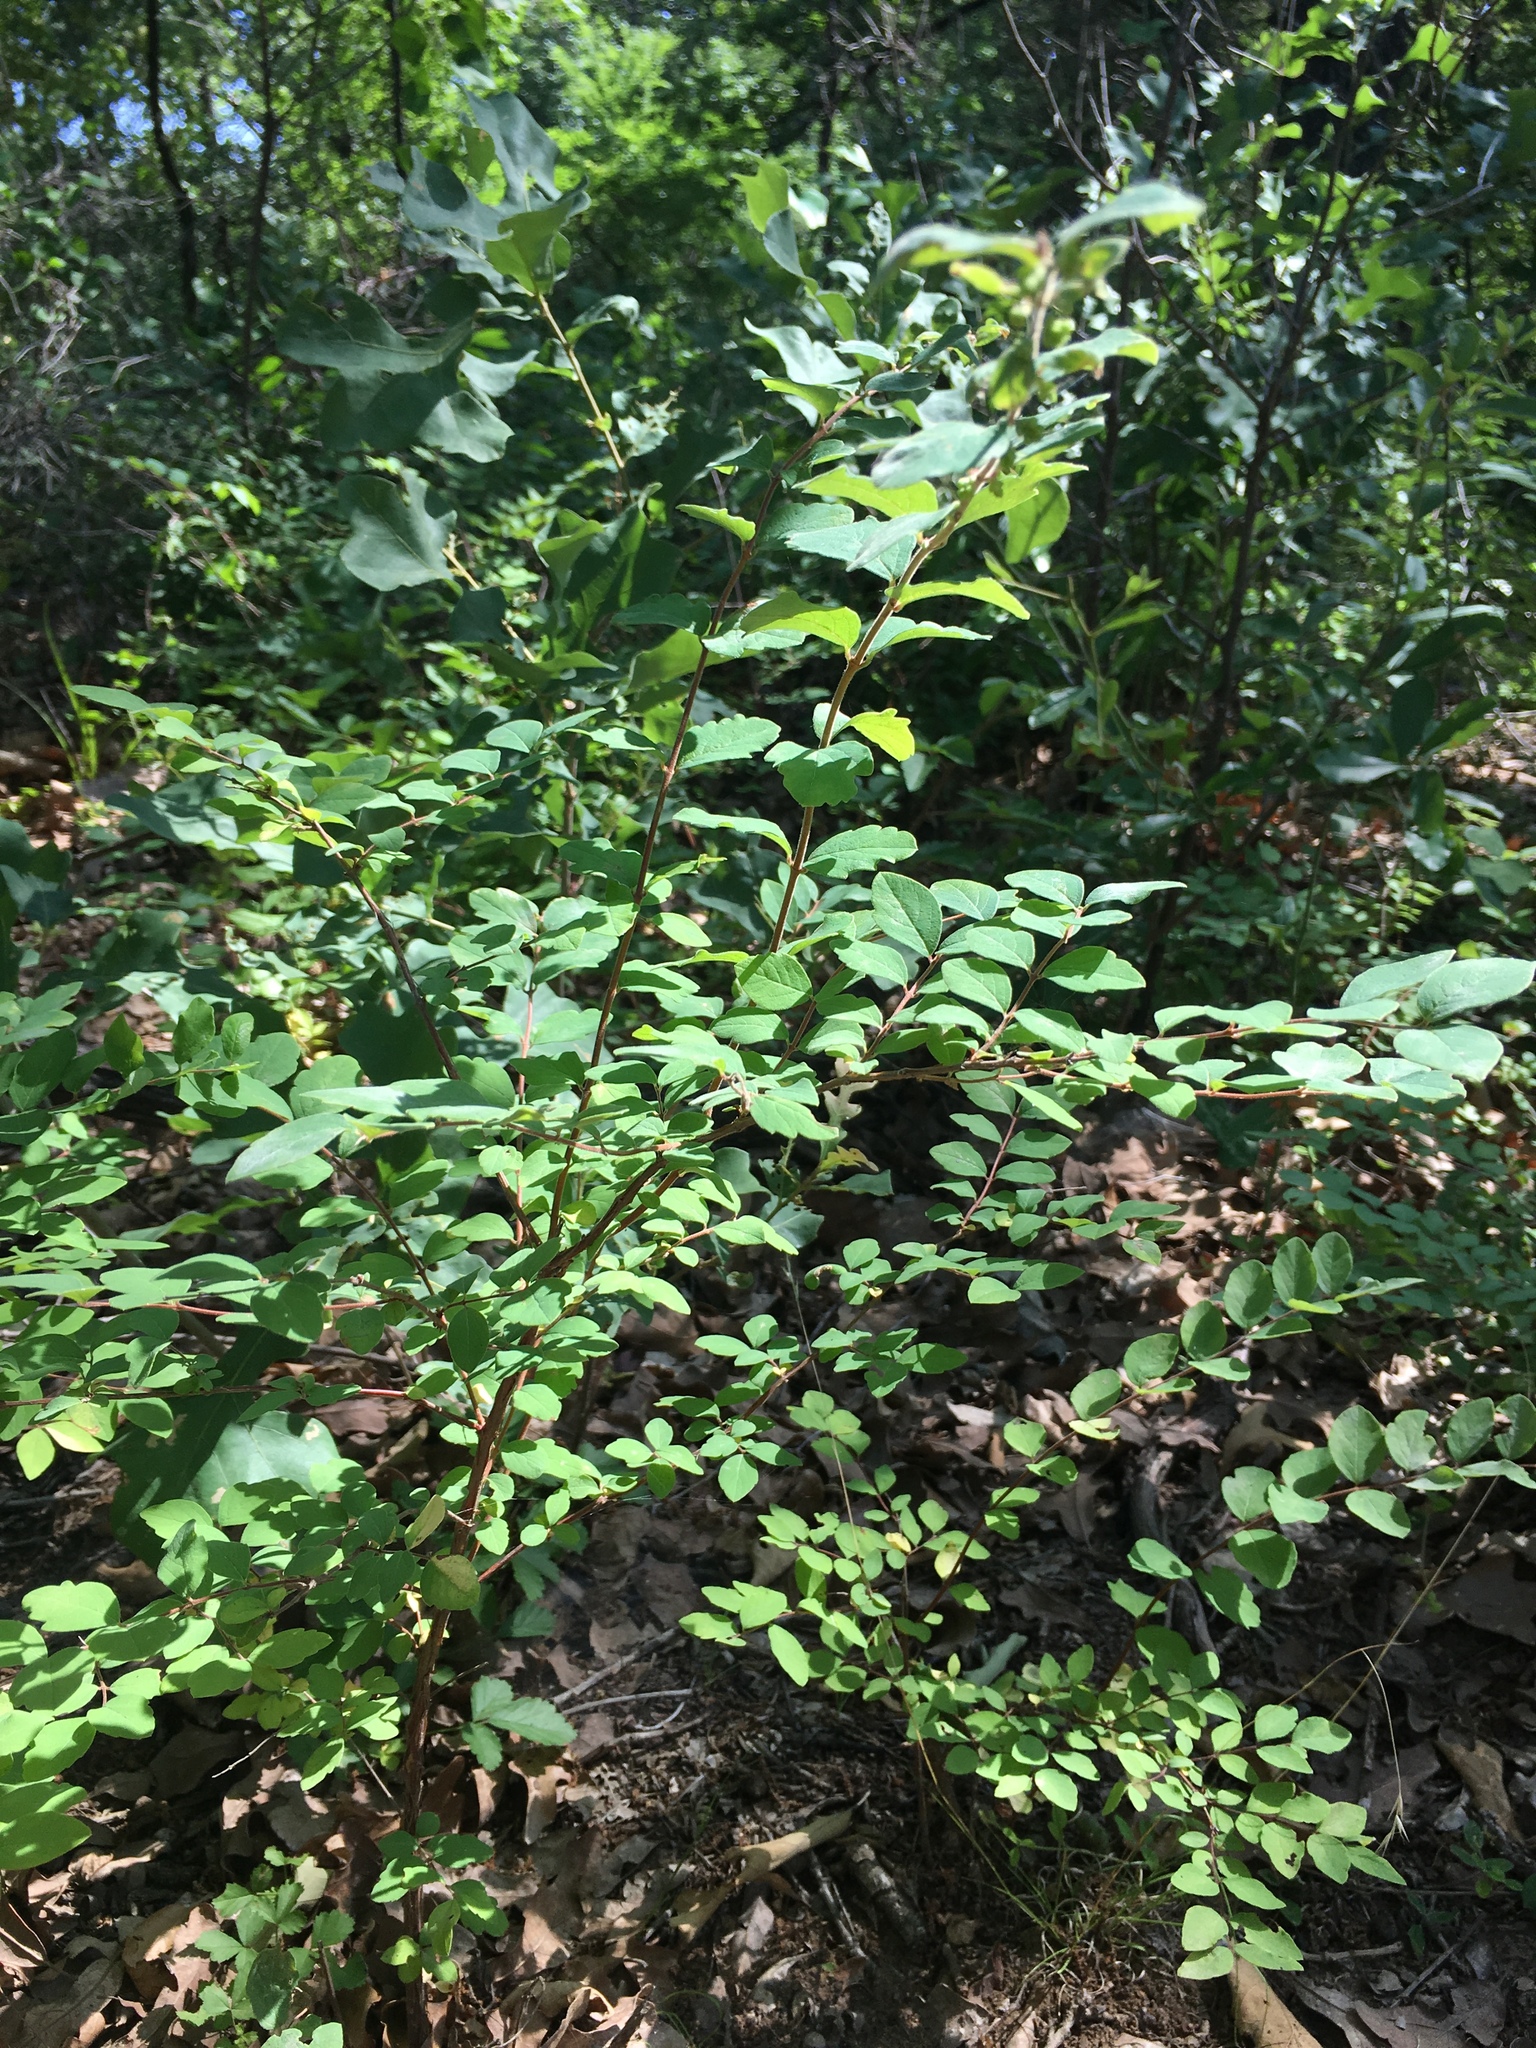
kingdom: Plantae
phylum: Tracheophyta
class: Magnoliopsida
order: Dipsacales
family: Caprifoliaceae
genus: Symphoricarpos
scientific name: Symphoricarpos orbiculatus
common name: Coralberry
